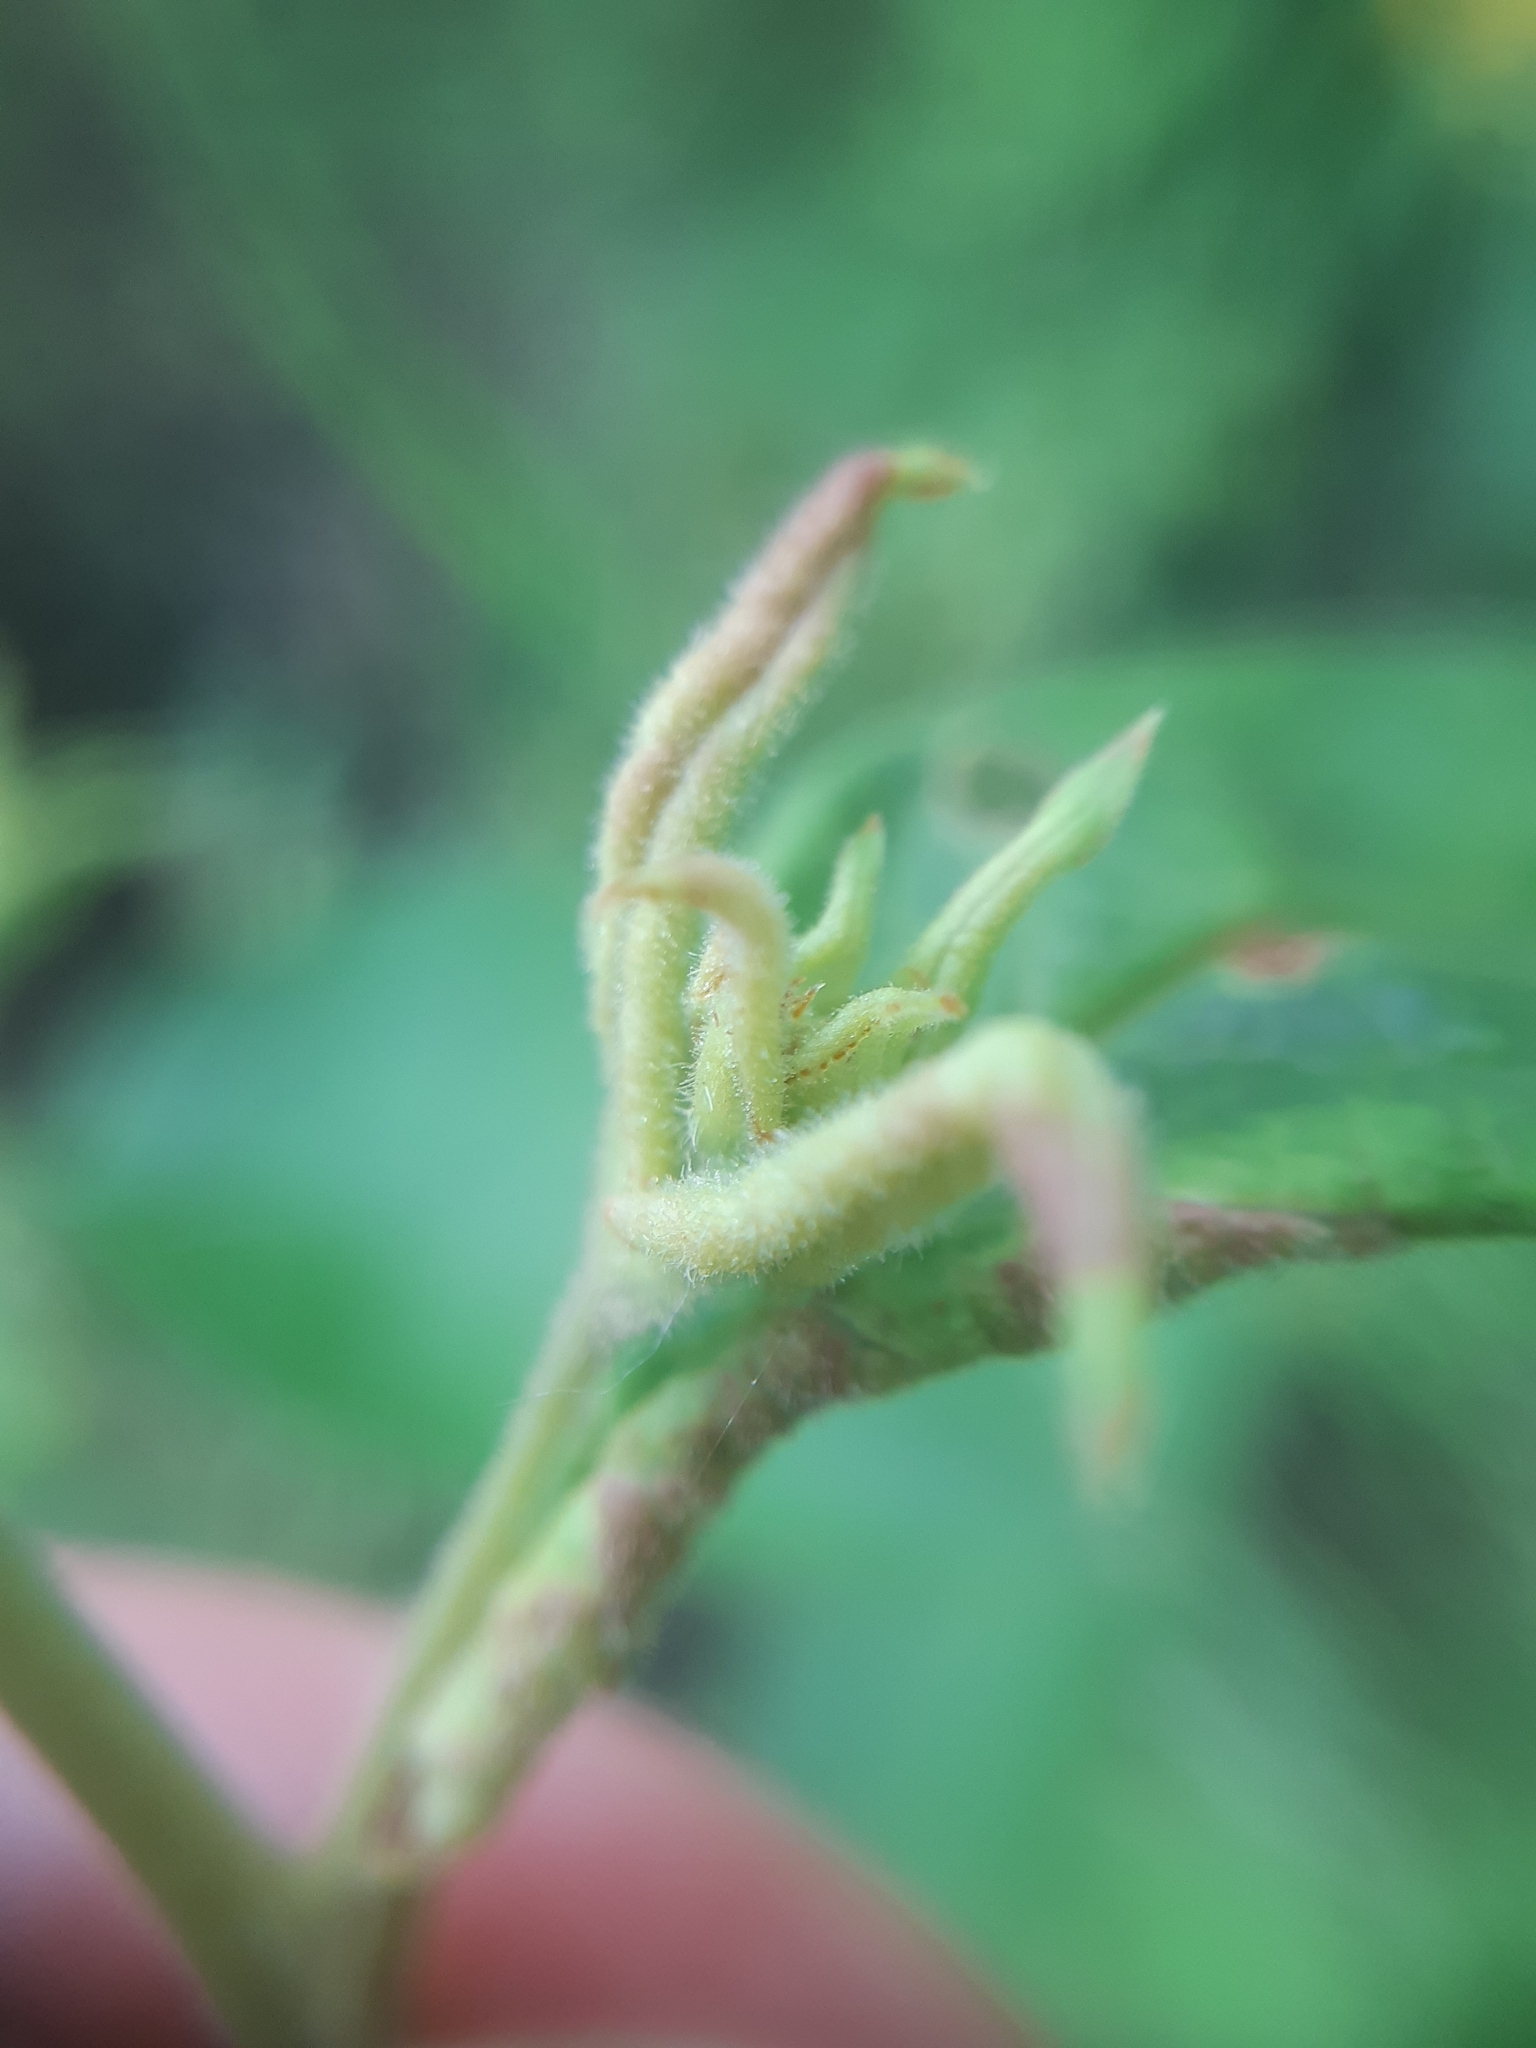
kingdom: Animalia
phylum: Arthropoda
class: Arachnida
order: Trombidiformes
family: Eriophyidae
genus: Aceria
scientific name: Aceria laticincta
